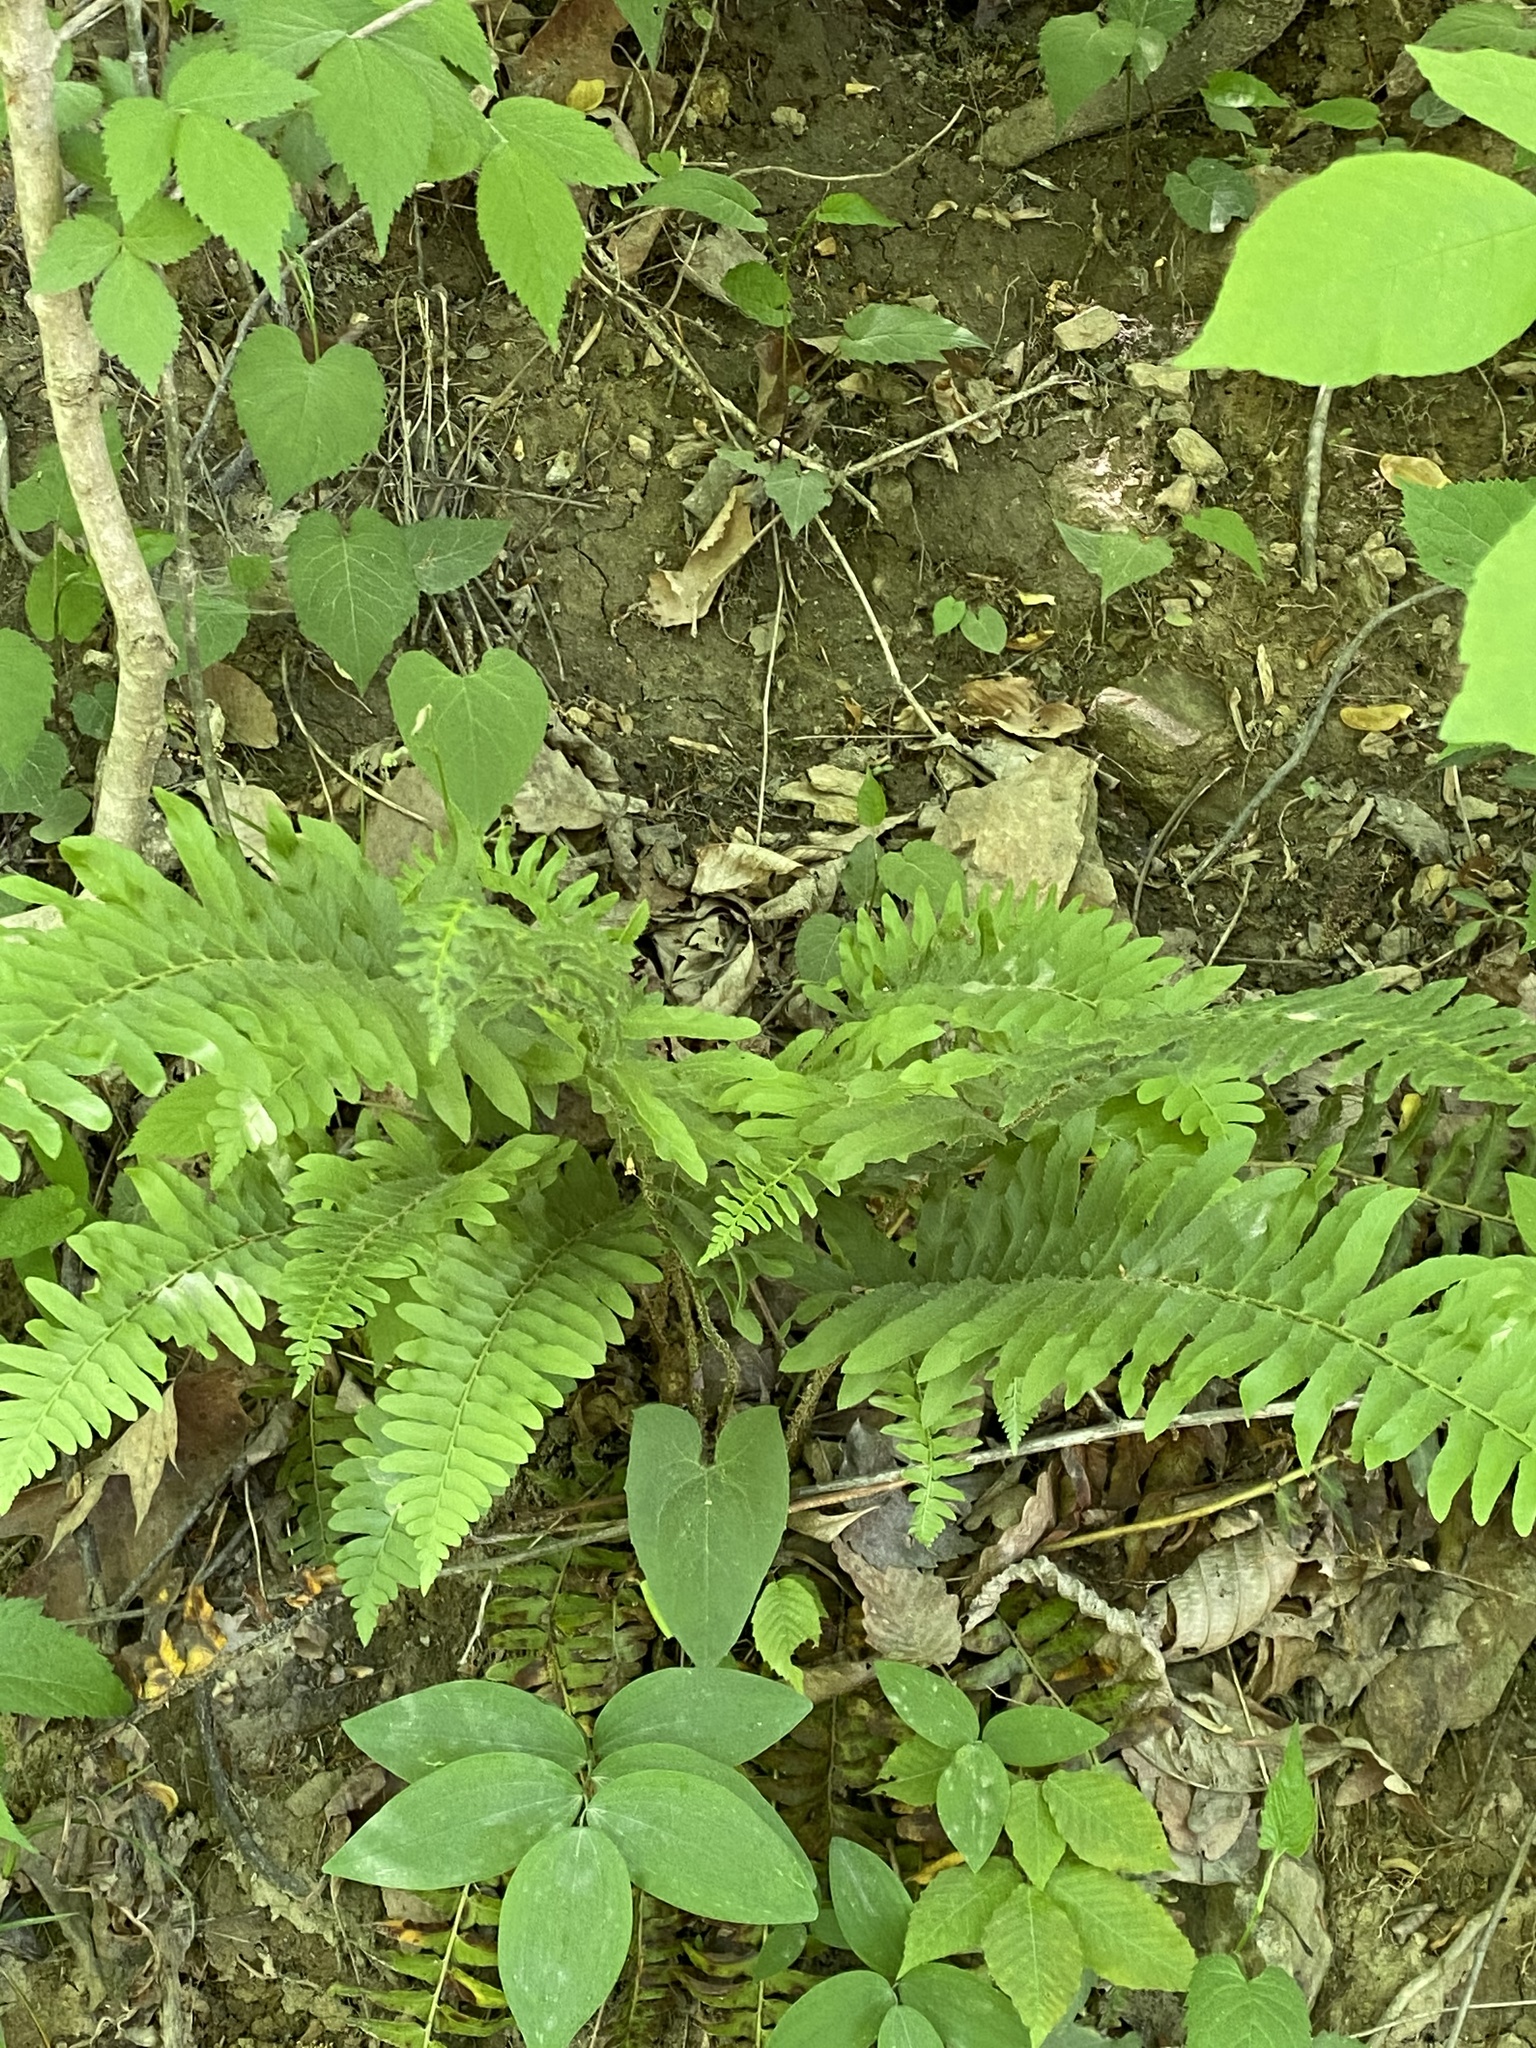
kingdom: Plantae
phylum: Tracheophyta
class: Polypodiopsida
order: Polypodiales
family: Dryopteridaceae
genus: Polystichum
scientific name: Polystichum acrostichoides
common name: Christmas fern
